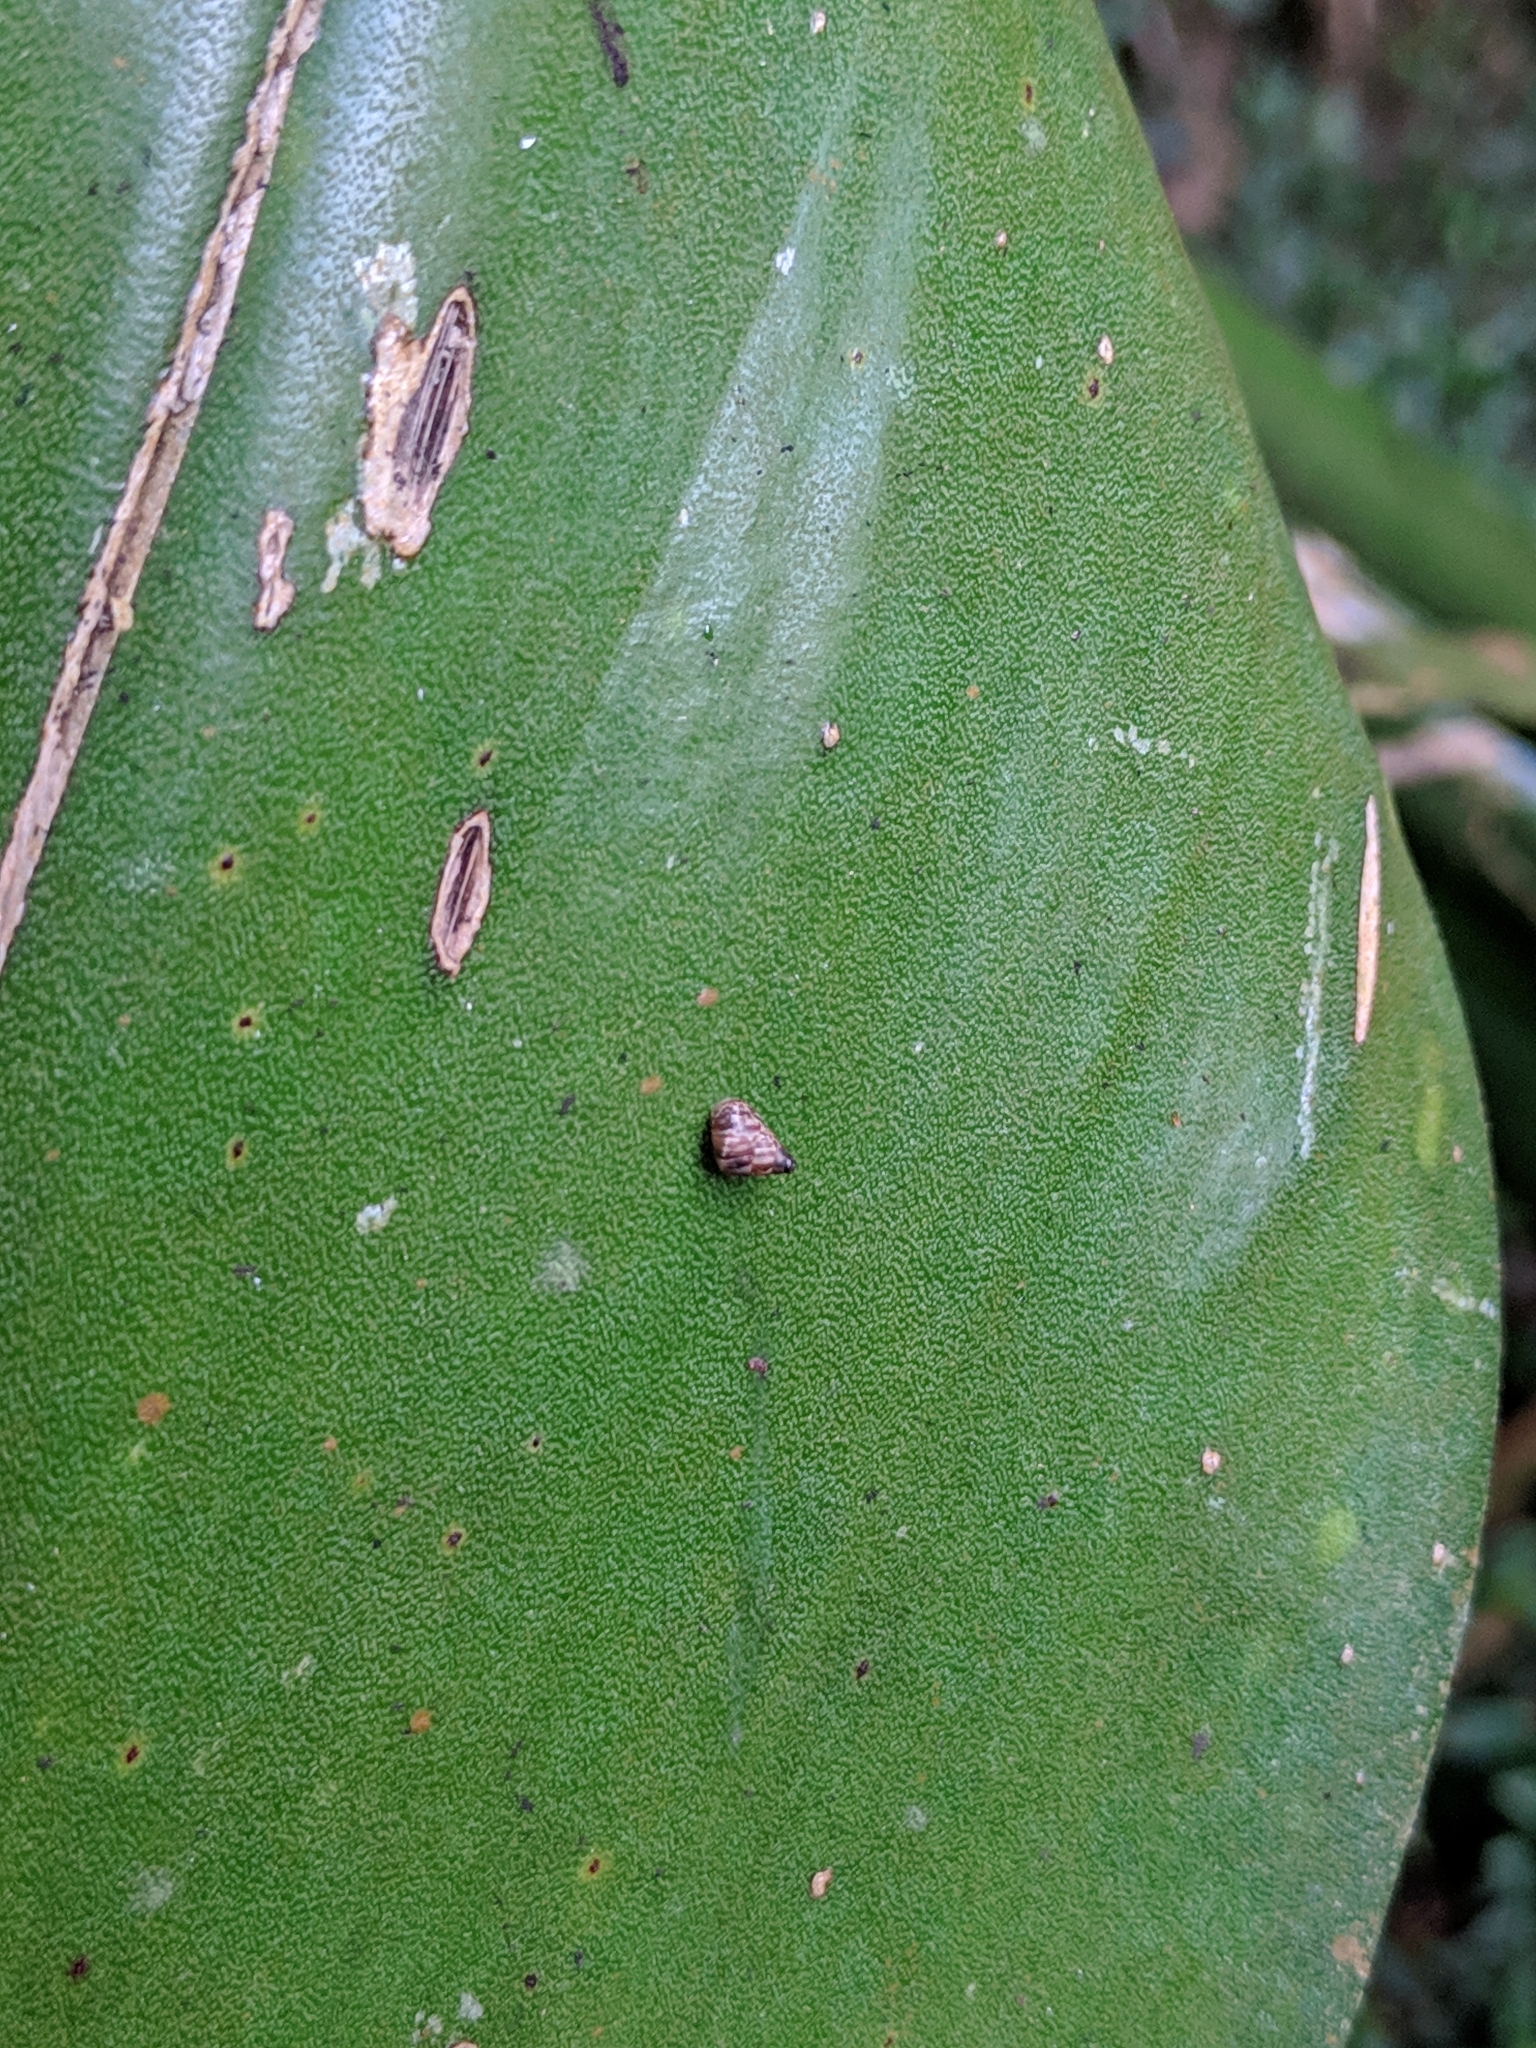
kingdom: Animalia
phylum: Mollusca
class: Gastropoda
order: Stylommatophora
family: Geomitridae
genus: Cochlicella
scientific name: Cochlicella barbara
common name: Potbellied helicellid
